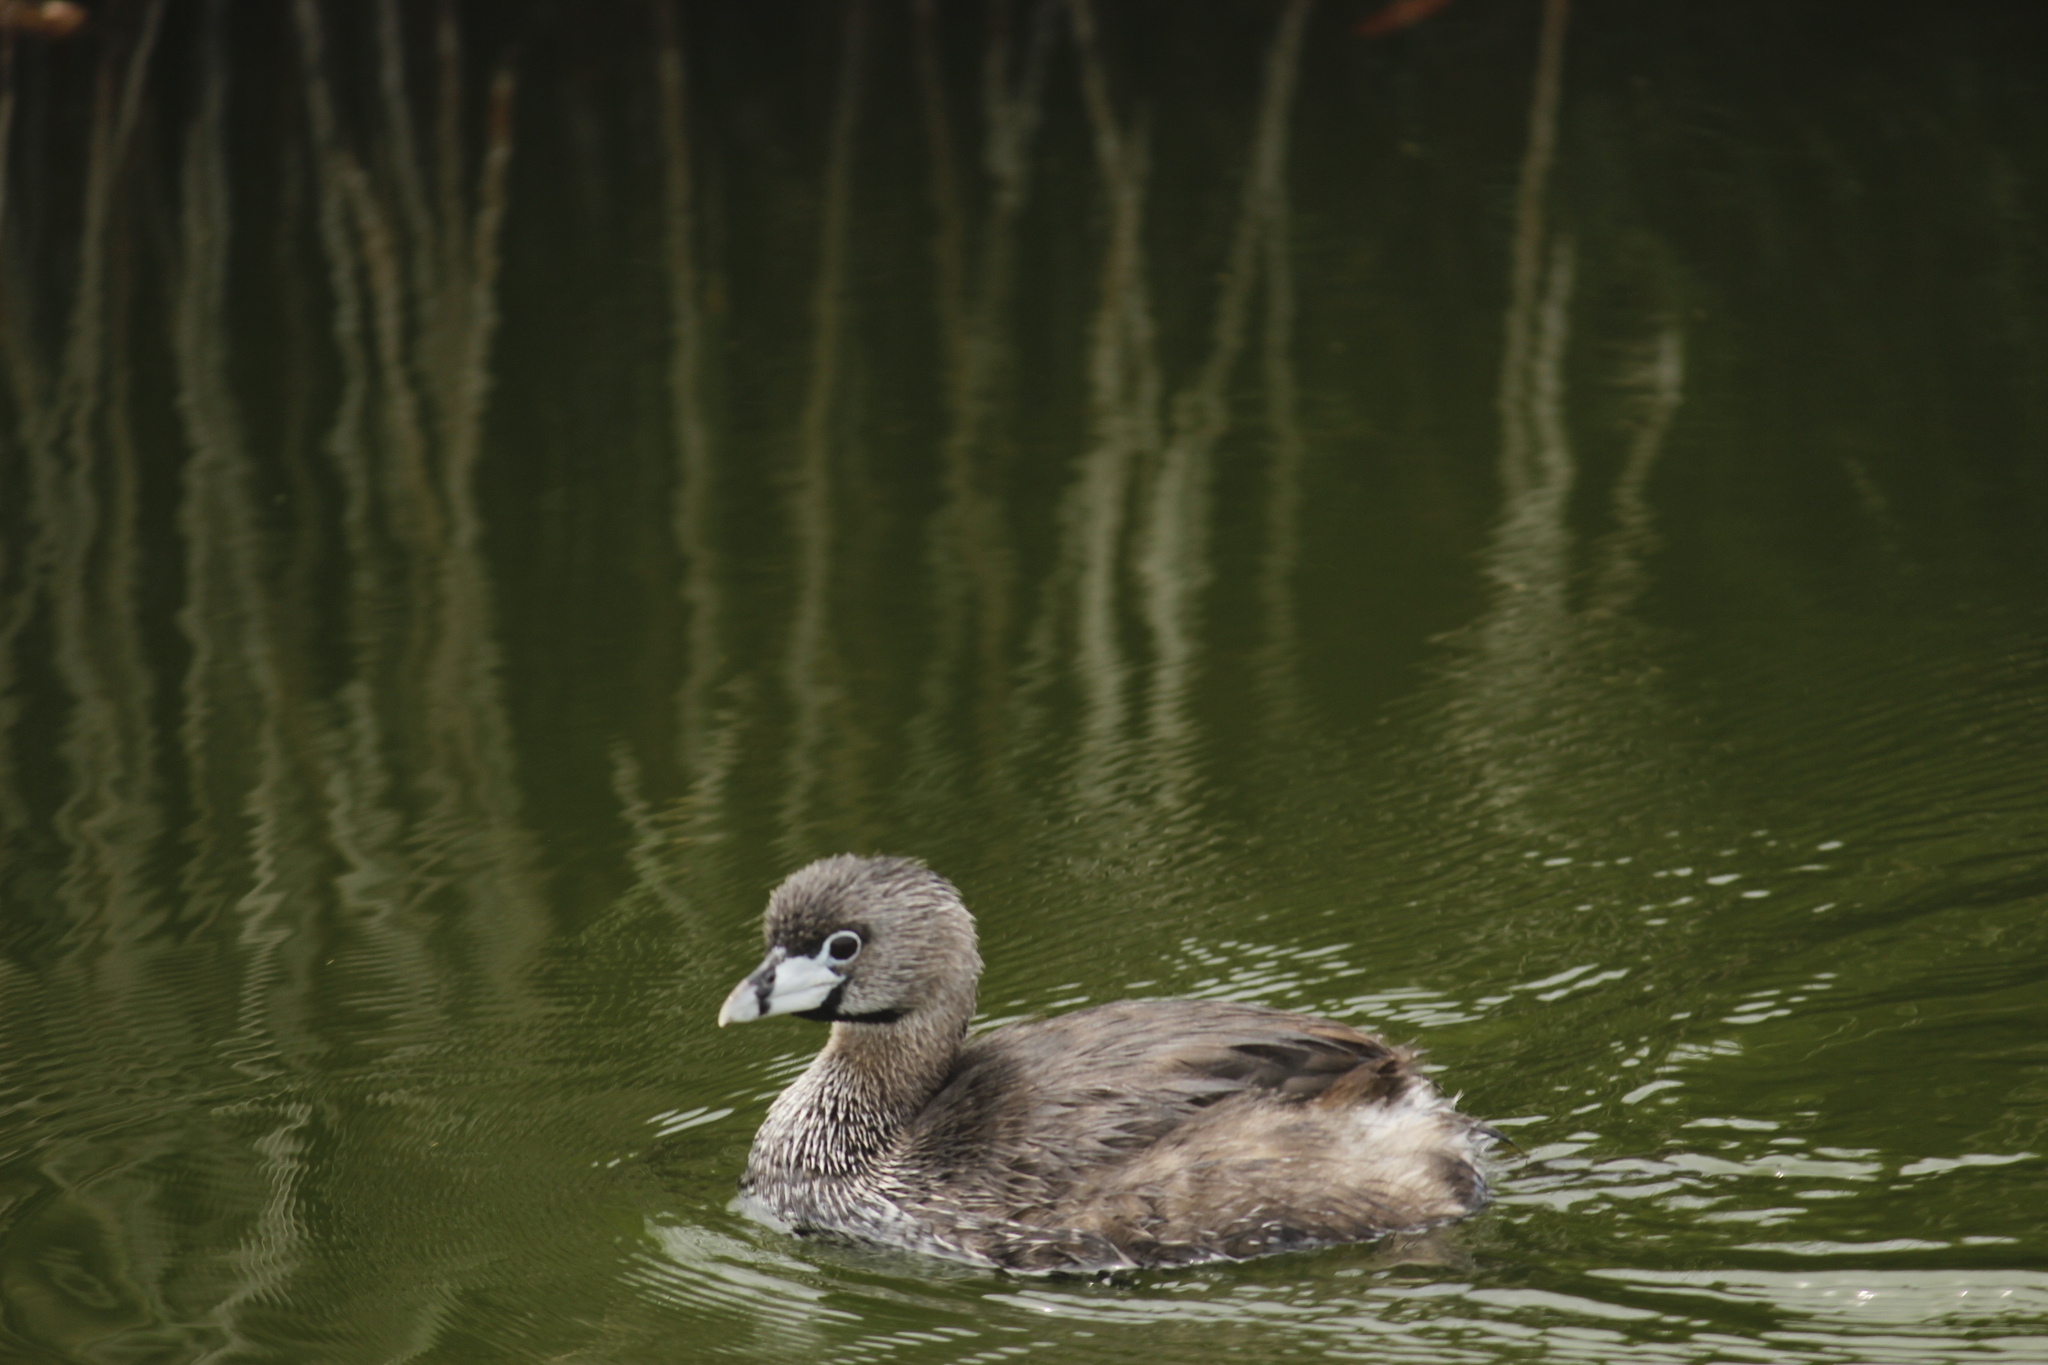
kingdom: Animalia
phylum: Chordata
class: Aves
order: Podicipediformes
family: Podicipedidae
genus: Podilymbus
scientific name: Podilymbus podiceps
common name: Pied-billed grebe
